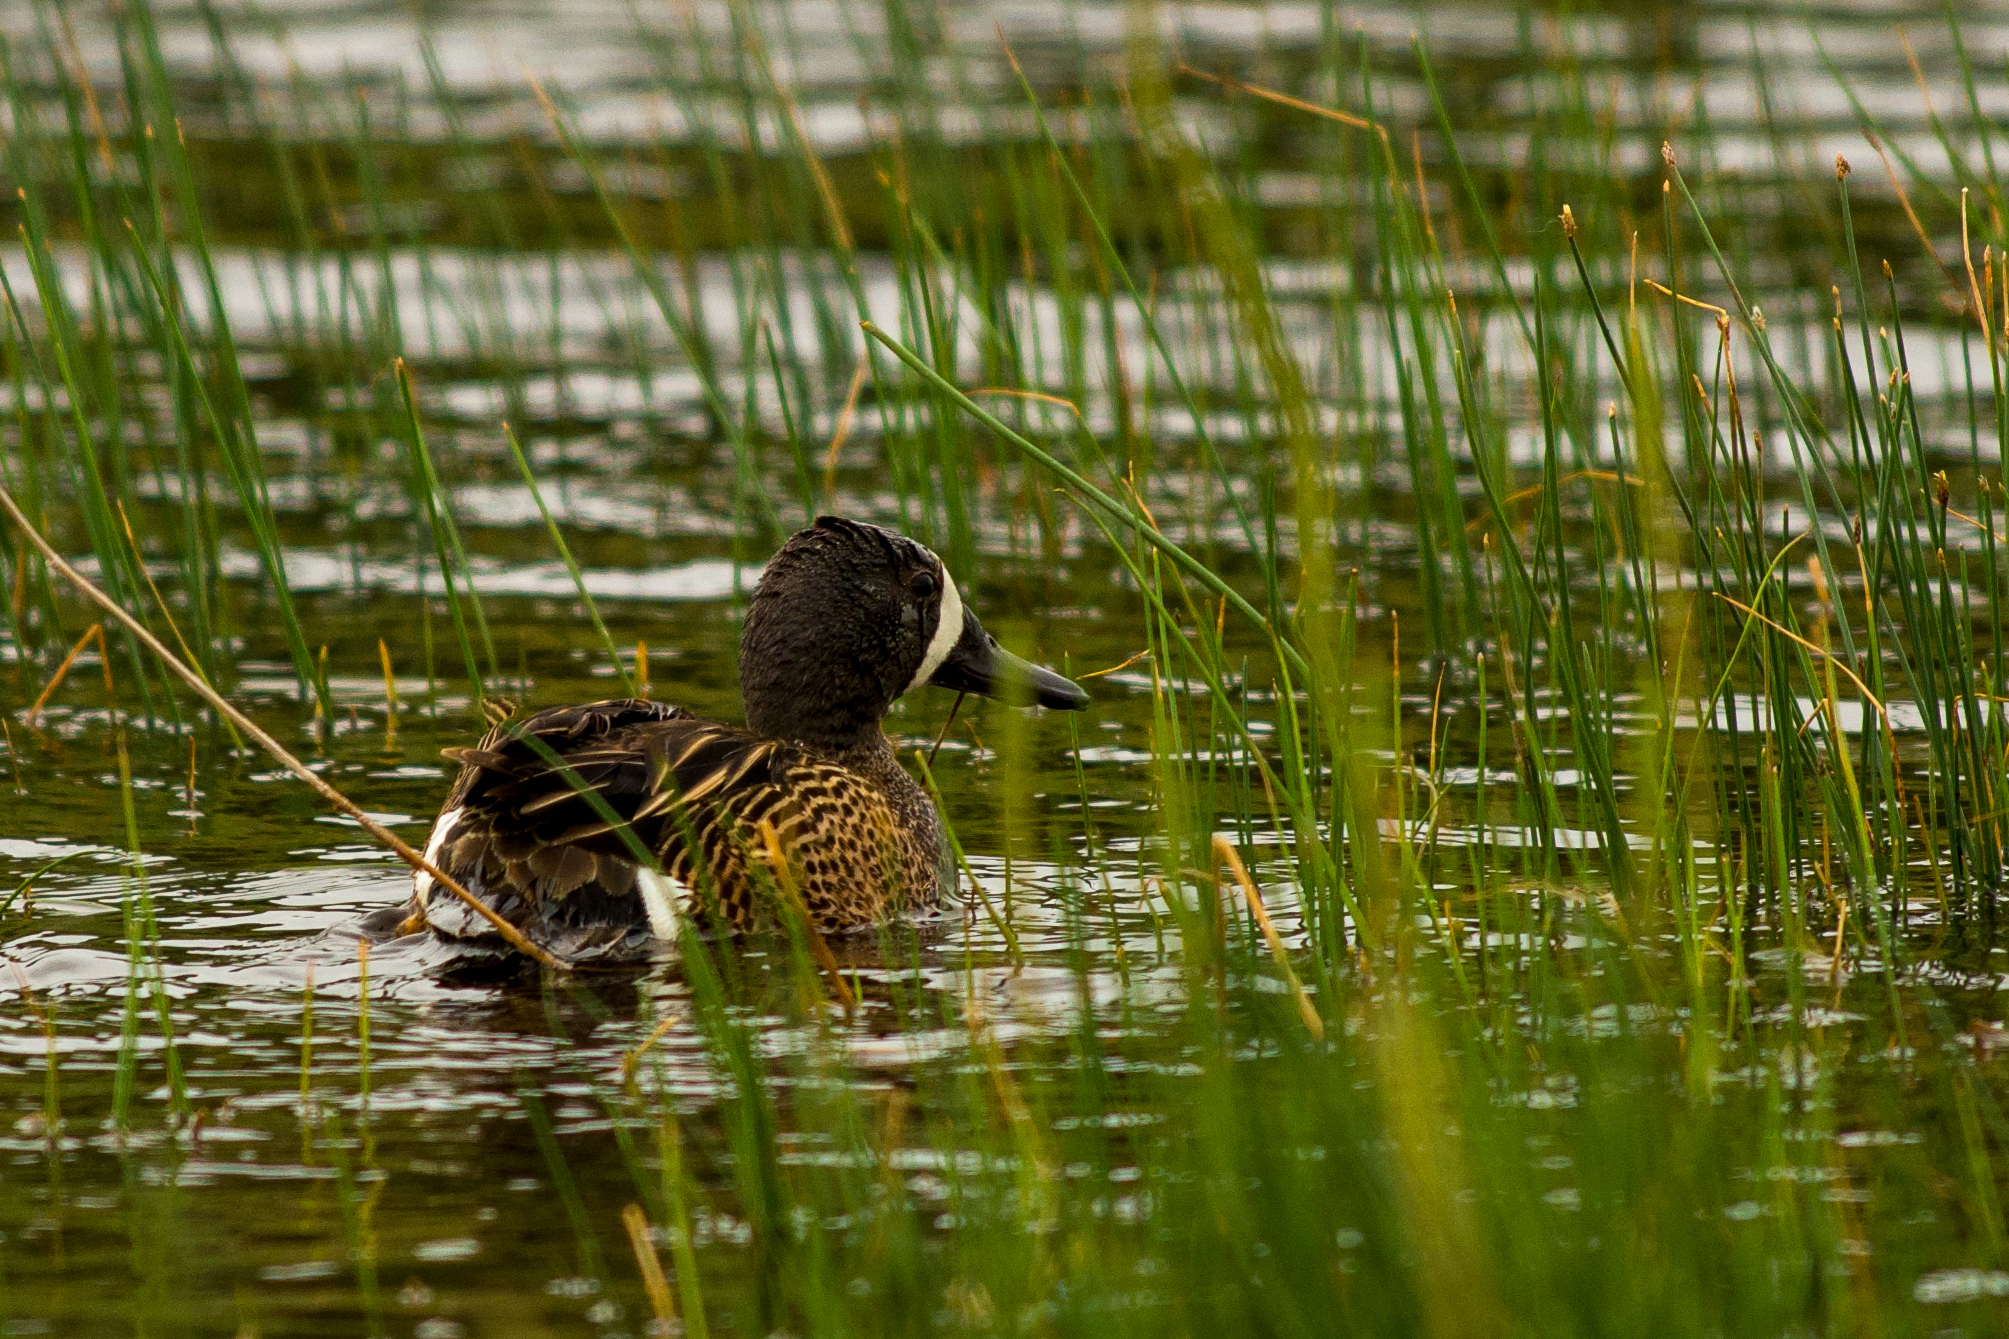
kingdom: Animalia
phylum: Chordata
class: Aves
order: Anseriformes
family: Anatidae
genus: Spatula
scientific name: Spatula discors
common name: Blue-winged teal
